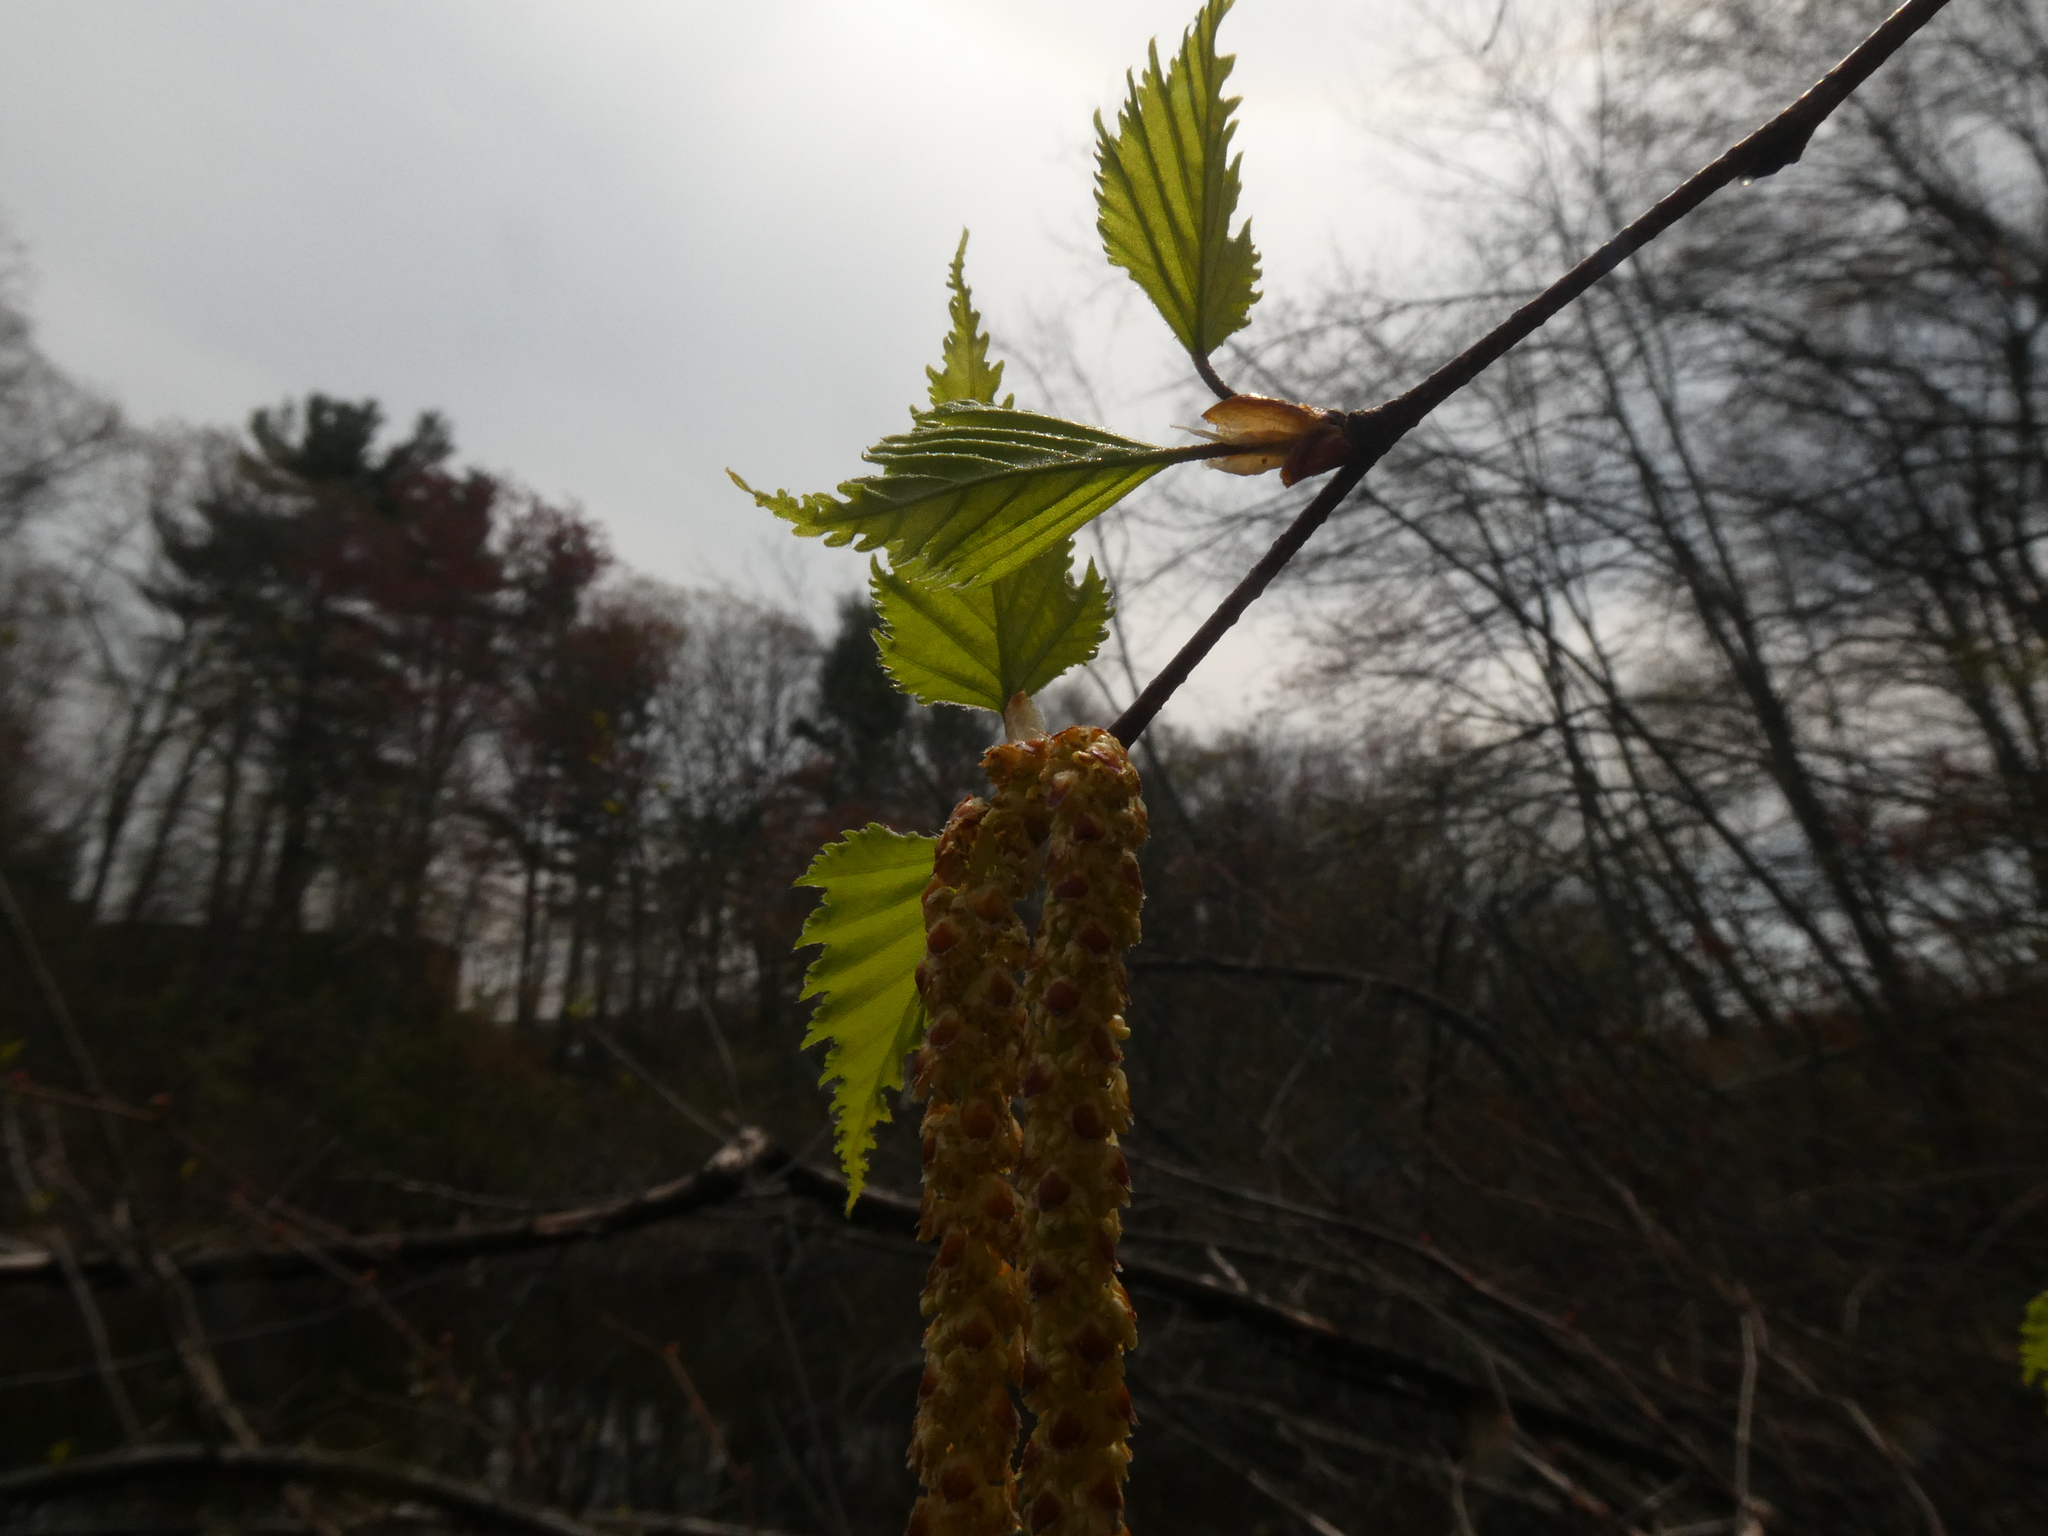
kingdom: Plantae
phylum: Tracheophyta
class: Magnoliopsida
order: Fagales
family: Betulaceae
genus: Betula
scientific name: Betula populifolia
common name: Fire birch
